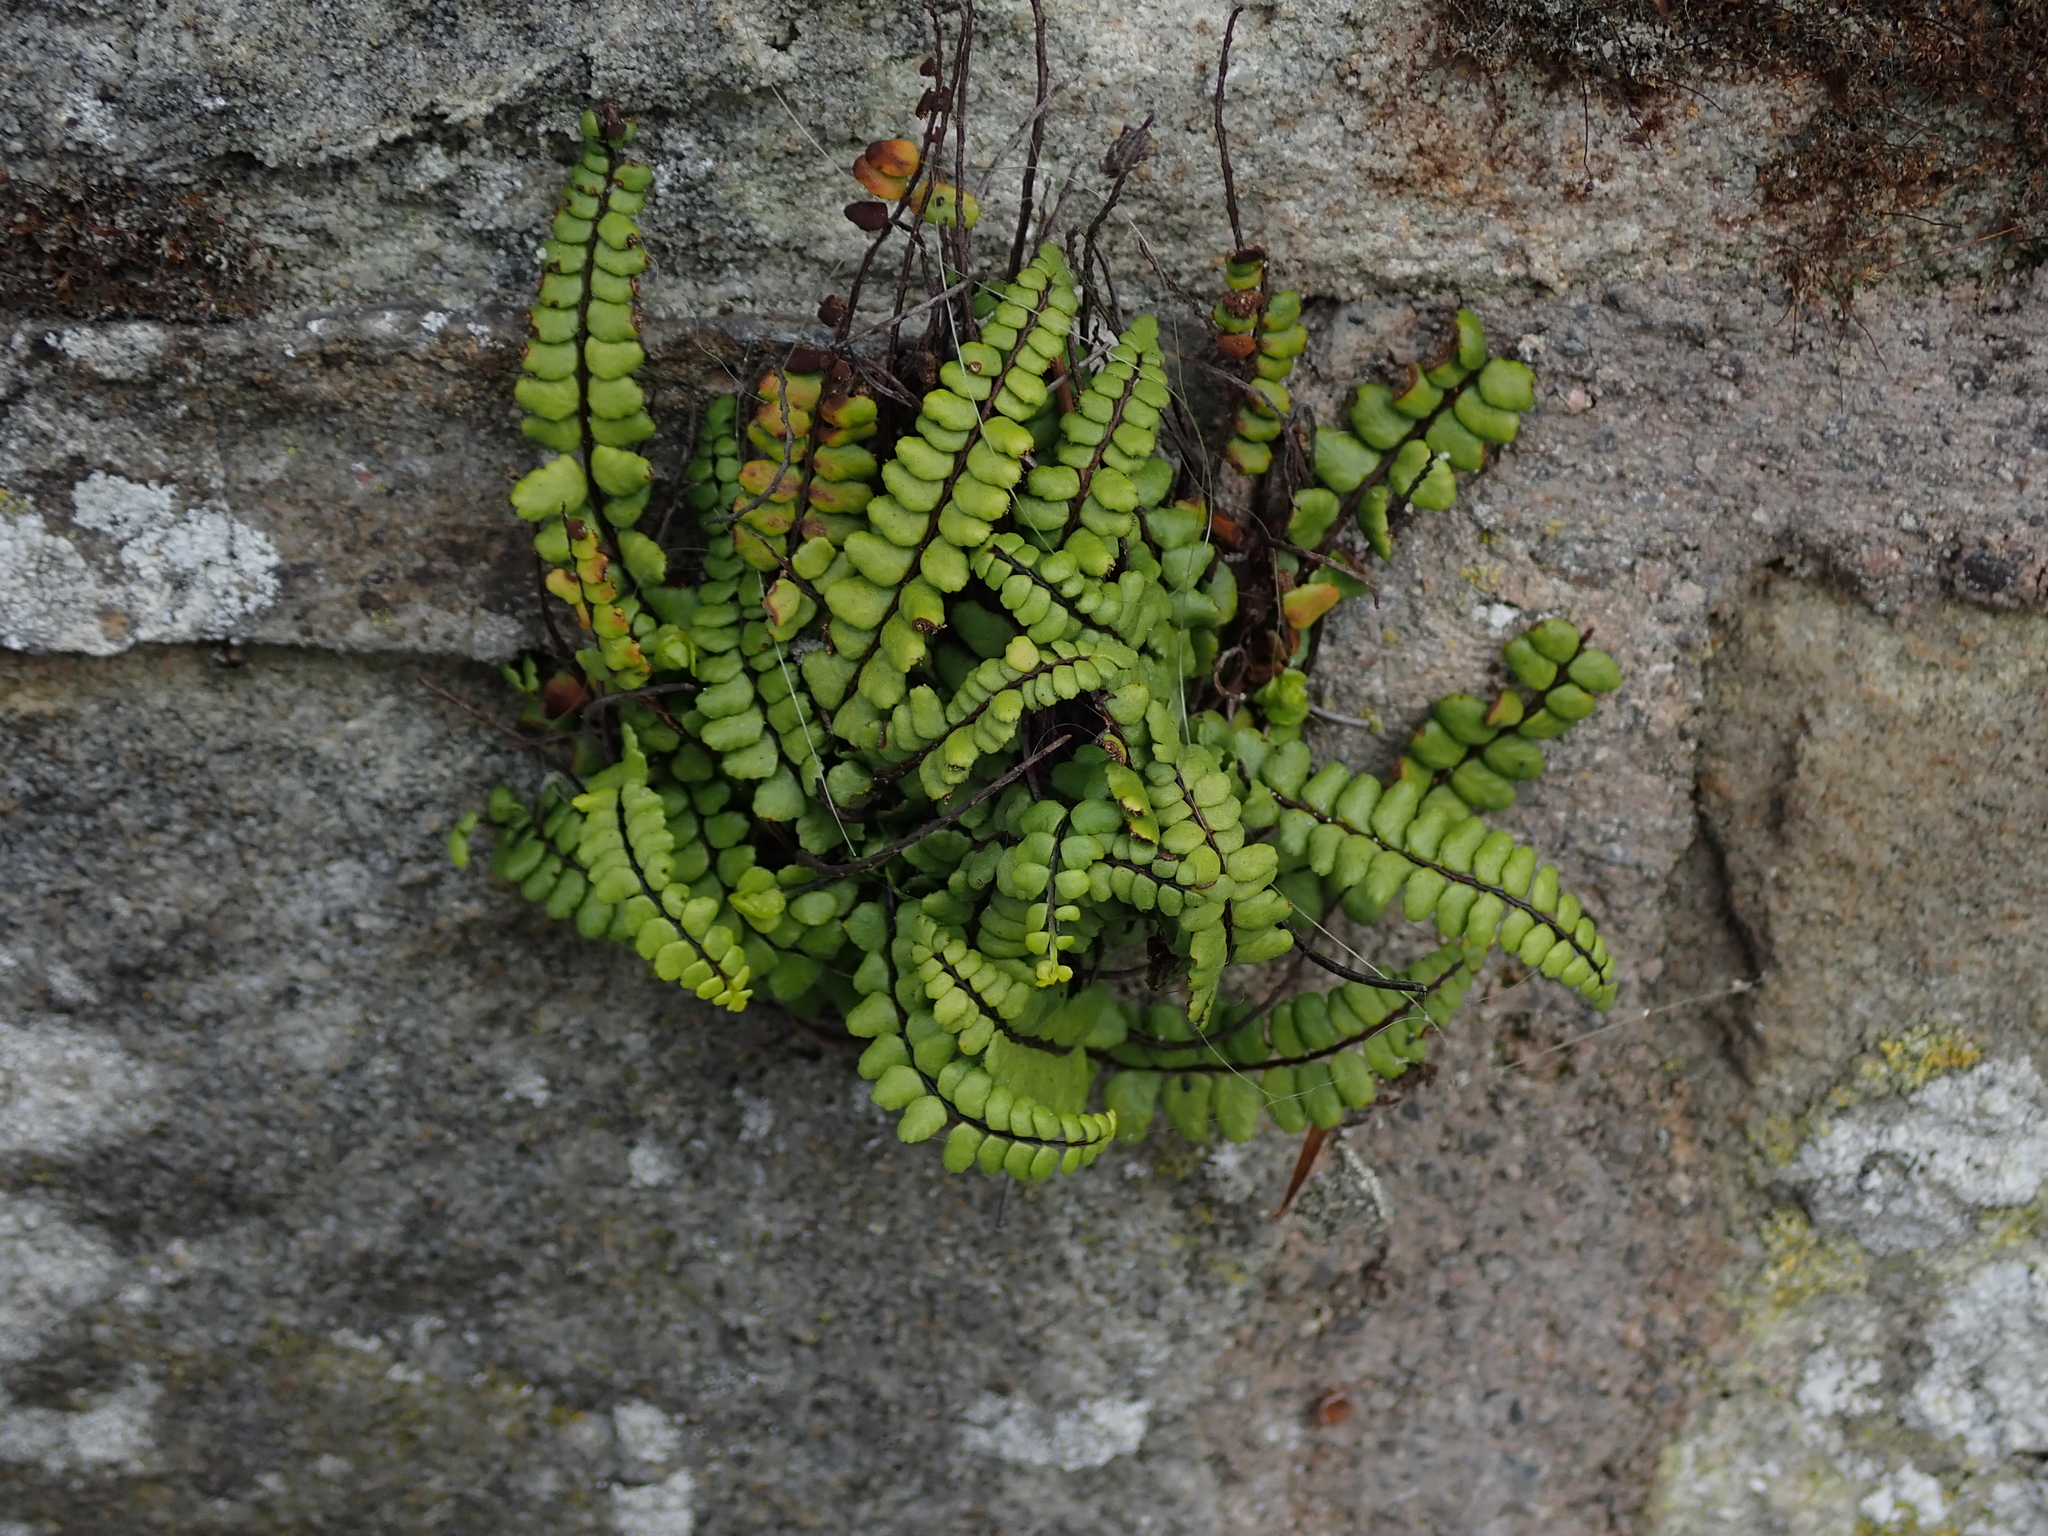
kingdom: Plantae
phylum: Tracheophyta
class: Polypodiopsida
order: Polypodiales
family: Aspleniaceae
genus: Asplenium
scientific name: Asplenium trichomanes
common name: Maidenhair spleenwort
